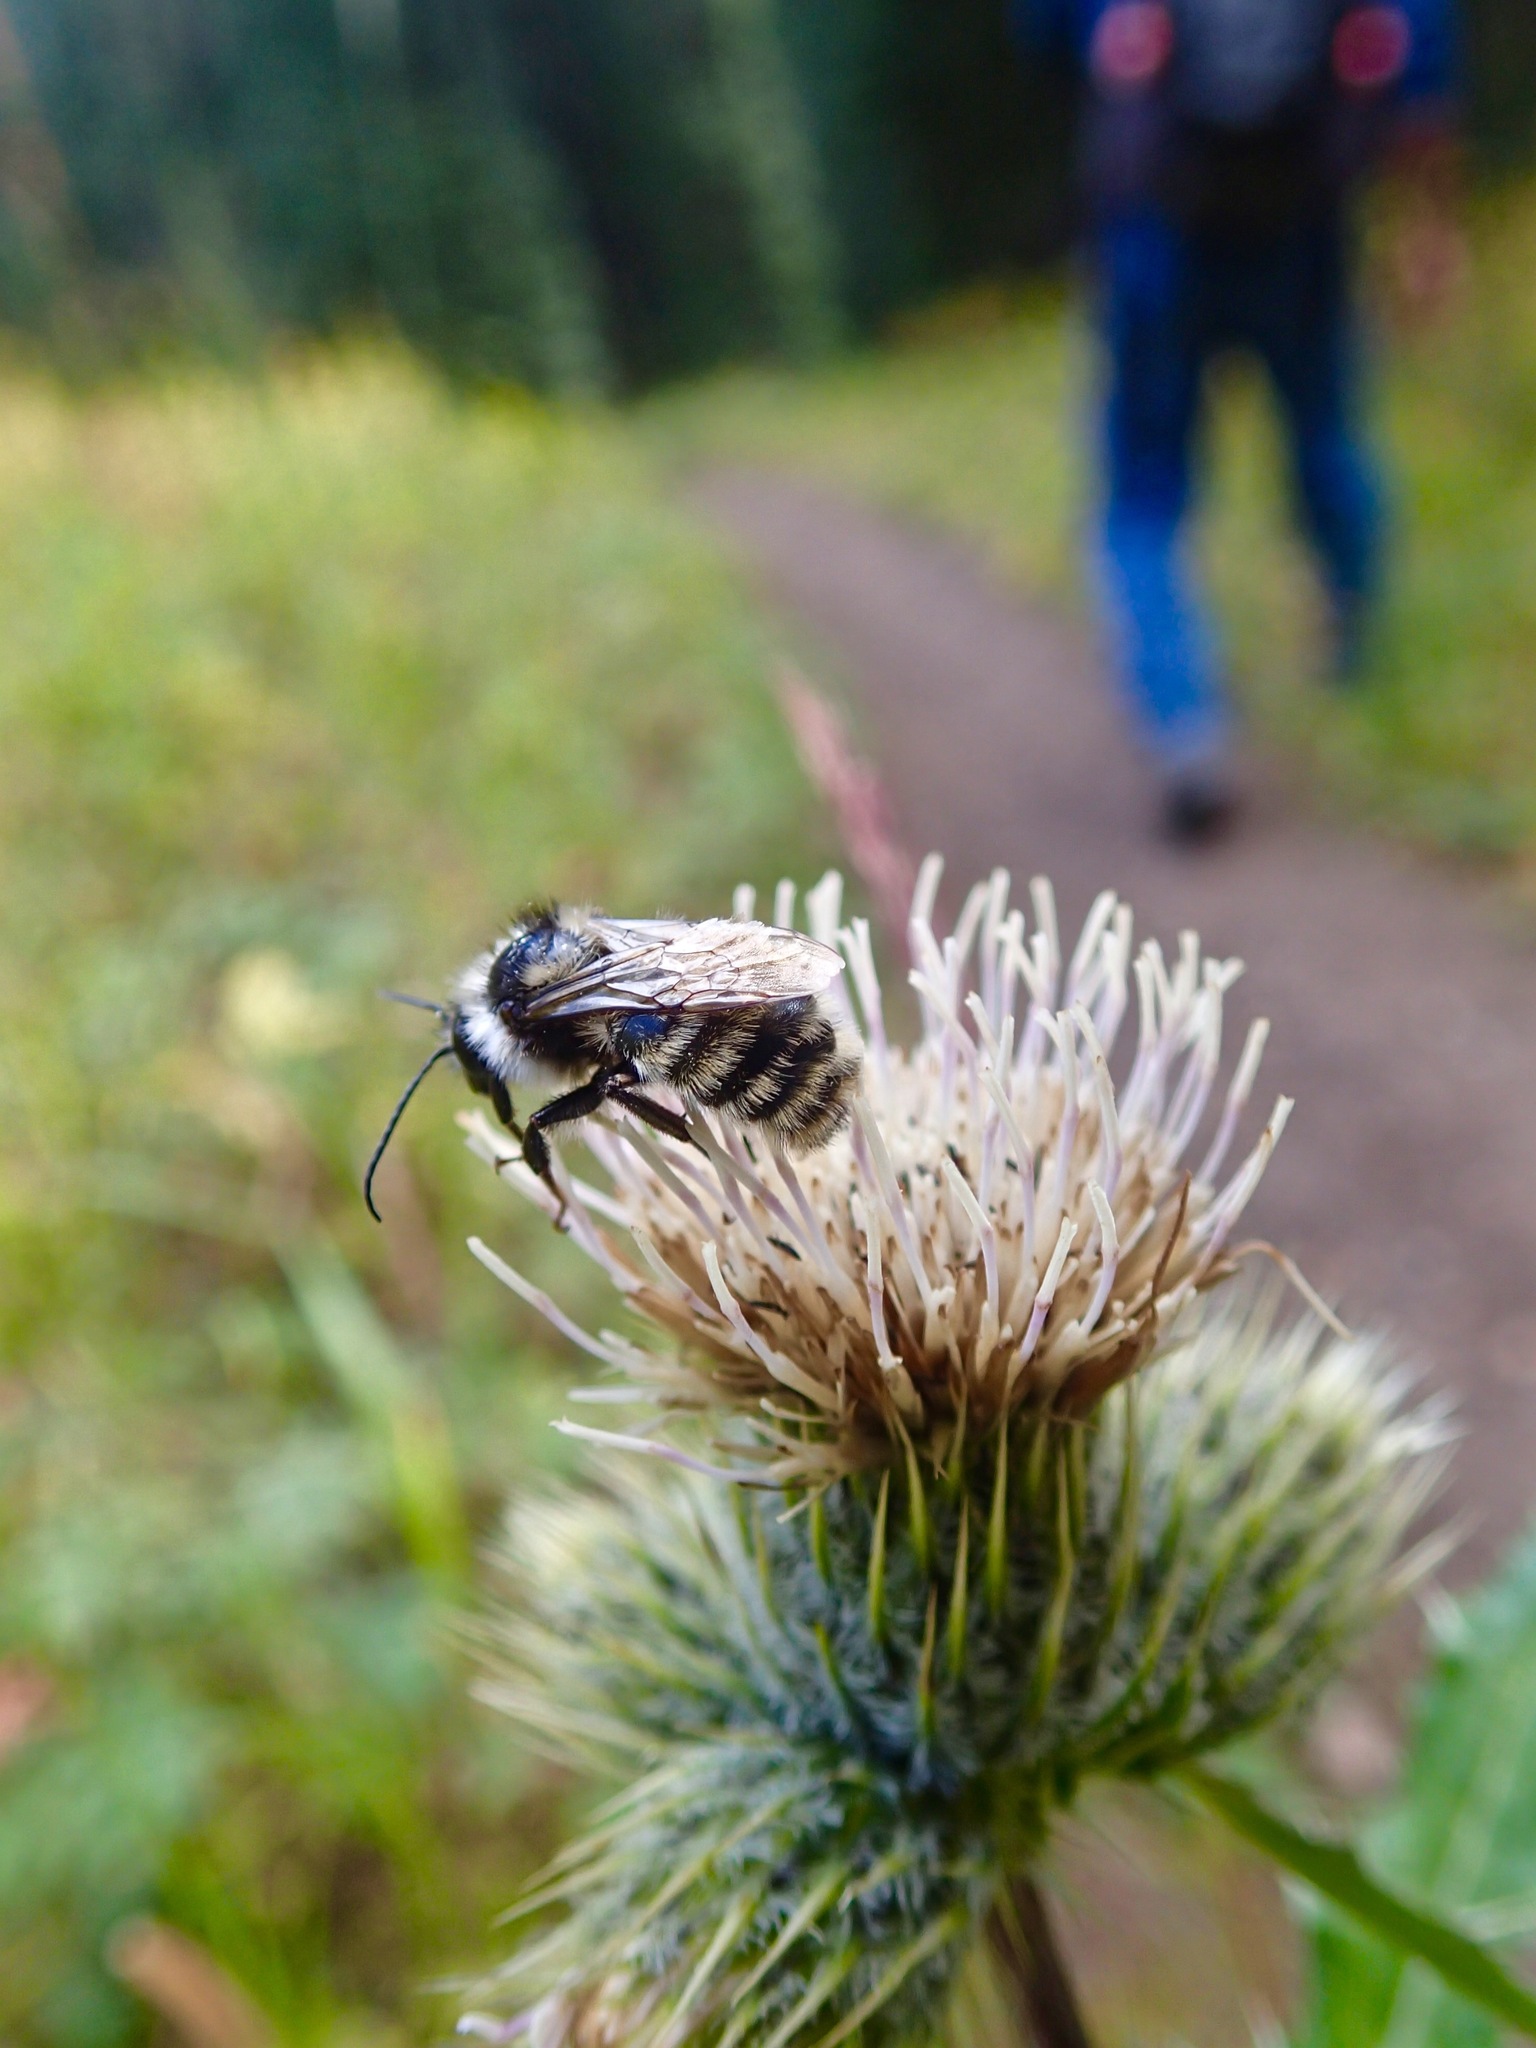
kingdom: Animalia
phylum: Arthropoda
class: Insecta
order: Hymenoptera
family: Apidae
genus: Bombus
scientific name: Bombus
